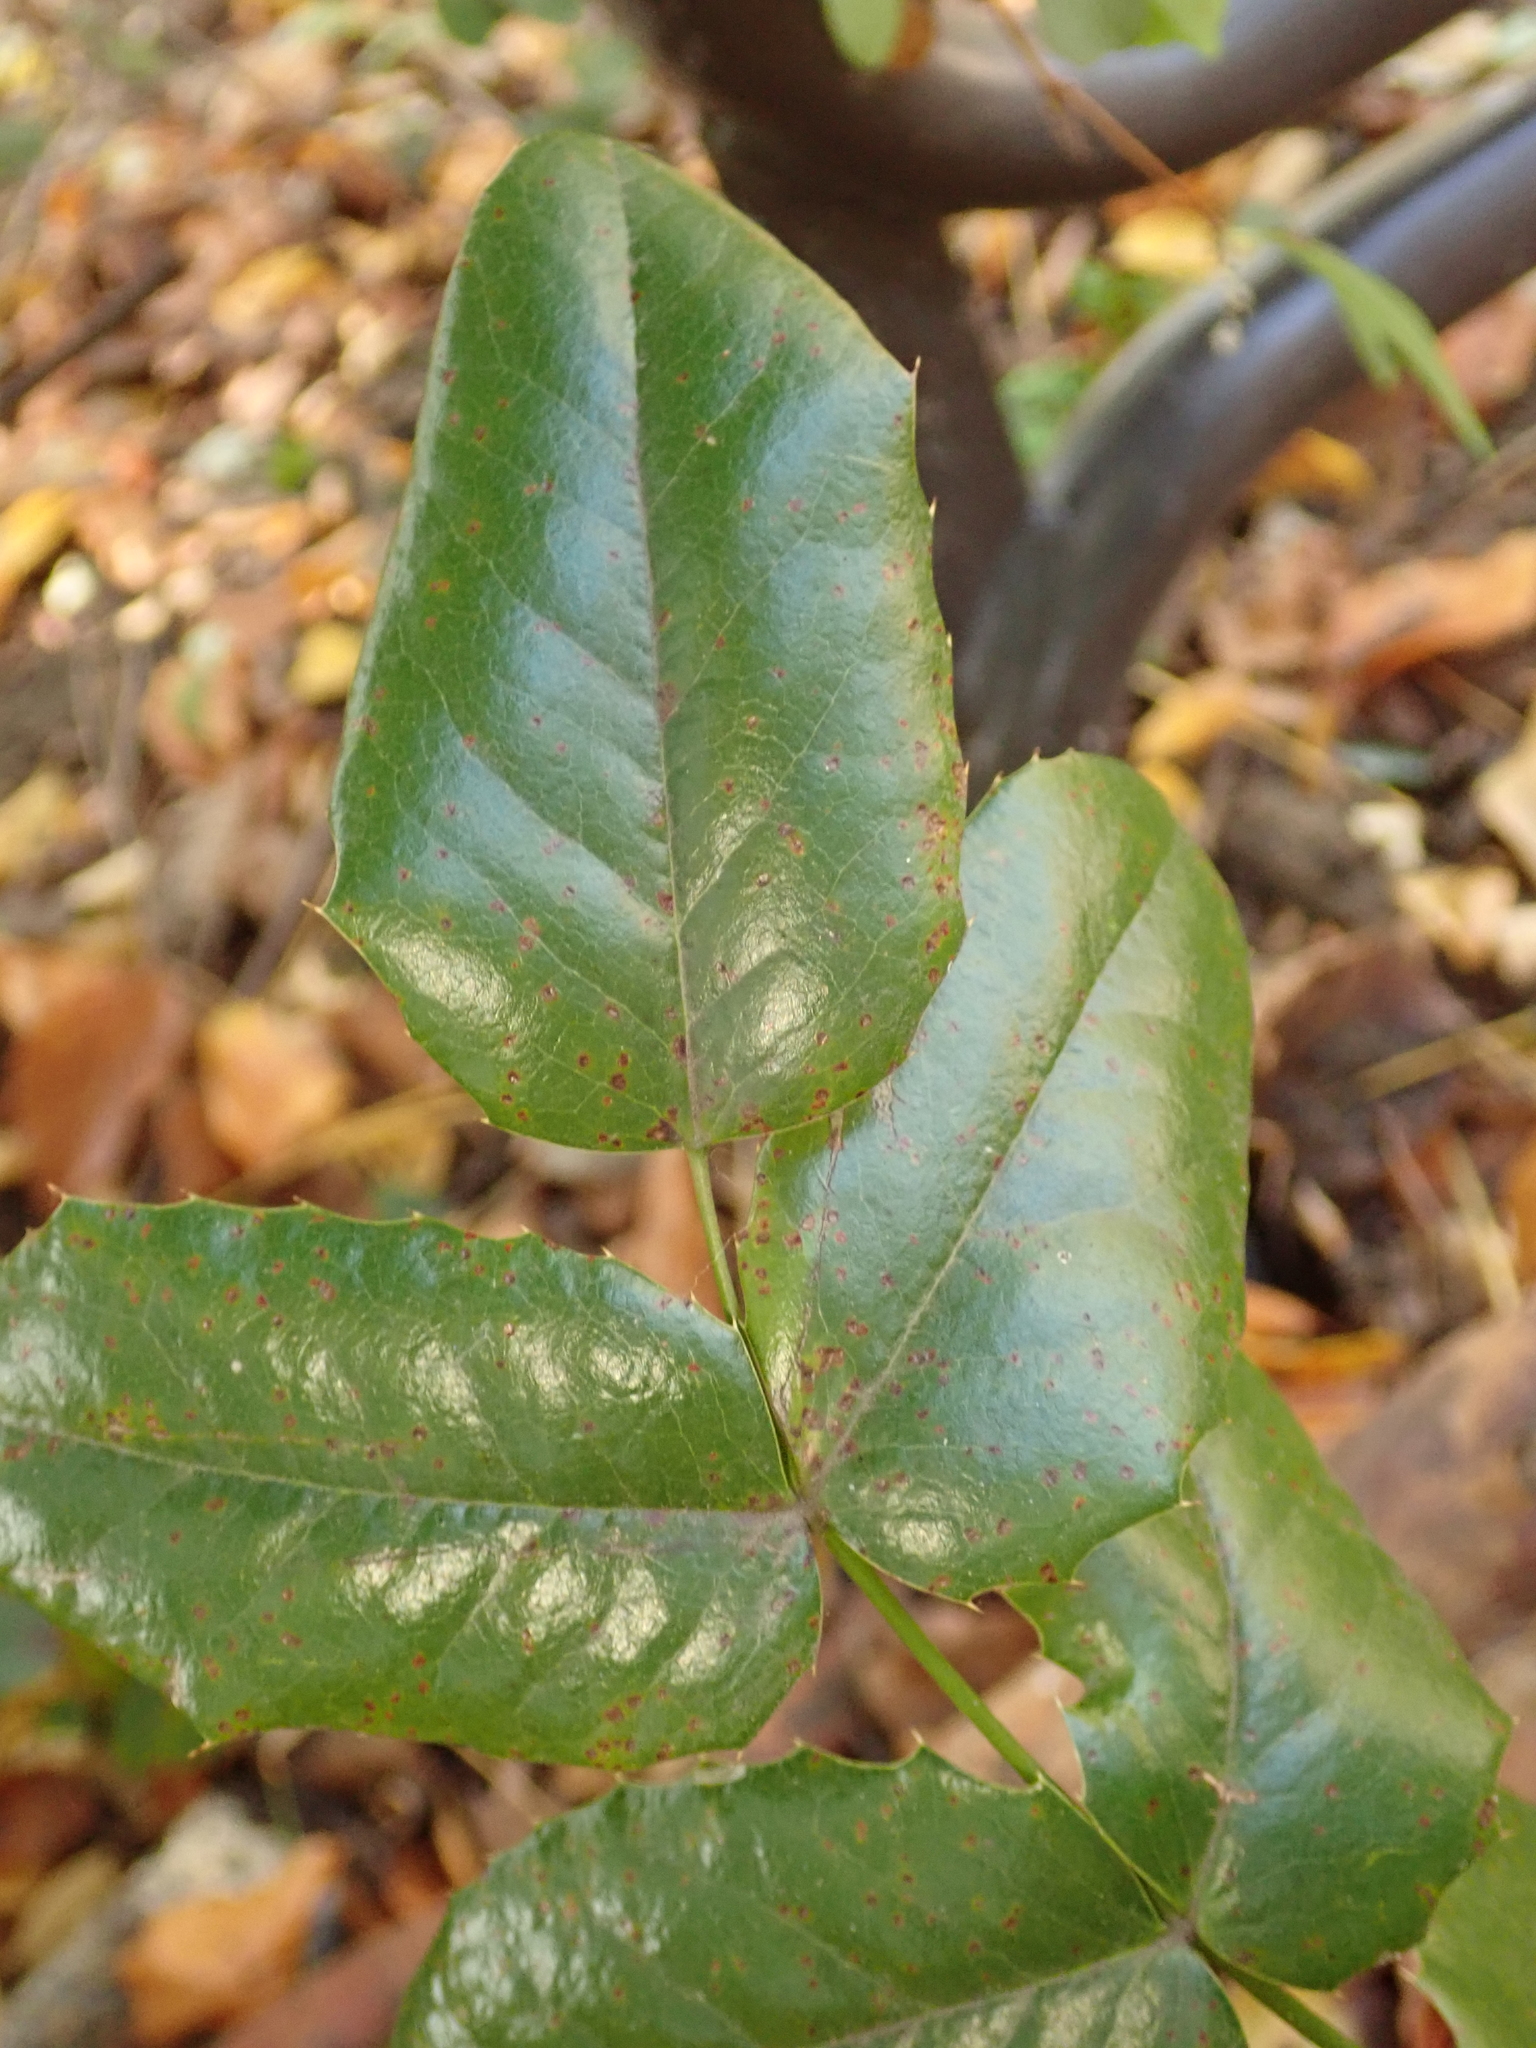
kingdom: Plantae
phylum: Tracheophyta
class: Magnoliopsida
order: Ranunculales
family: Berberidaceae
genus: Mahonia
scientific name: Mahonia aquifolium
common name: Oregon-grape
